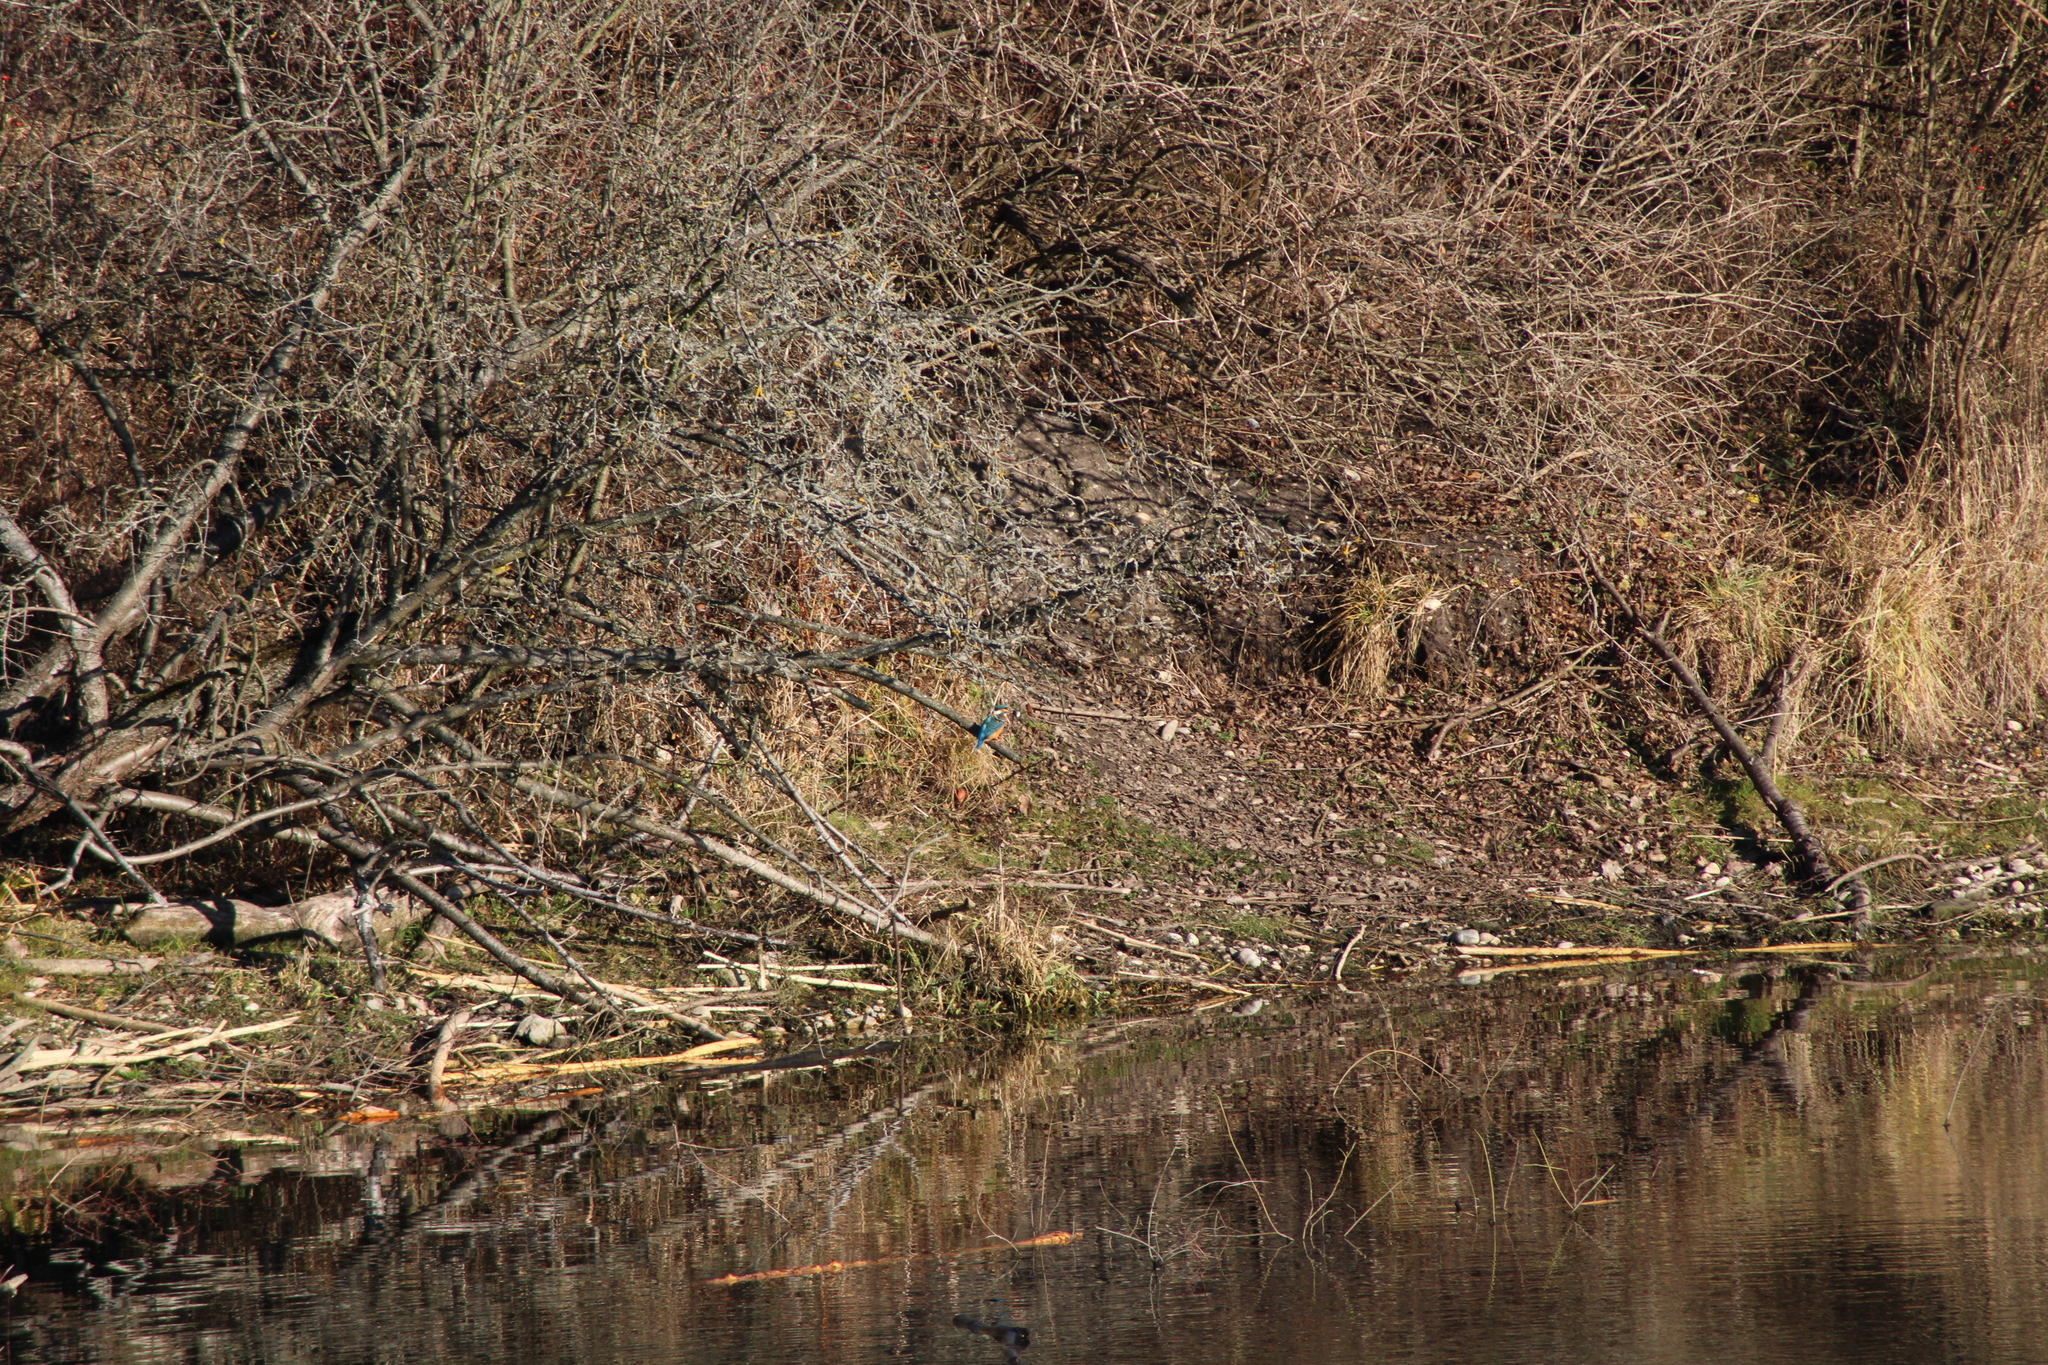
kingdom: Animalia
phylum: Chordata
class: Aves
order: Coraciiformes
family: Alcedinidae
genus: Alcedo
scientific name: Alcedo atthis
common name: Common kingfisher
